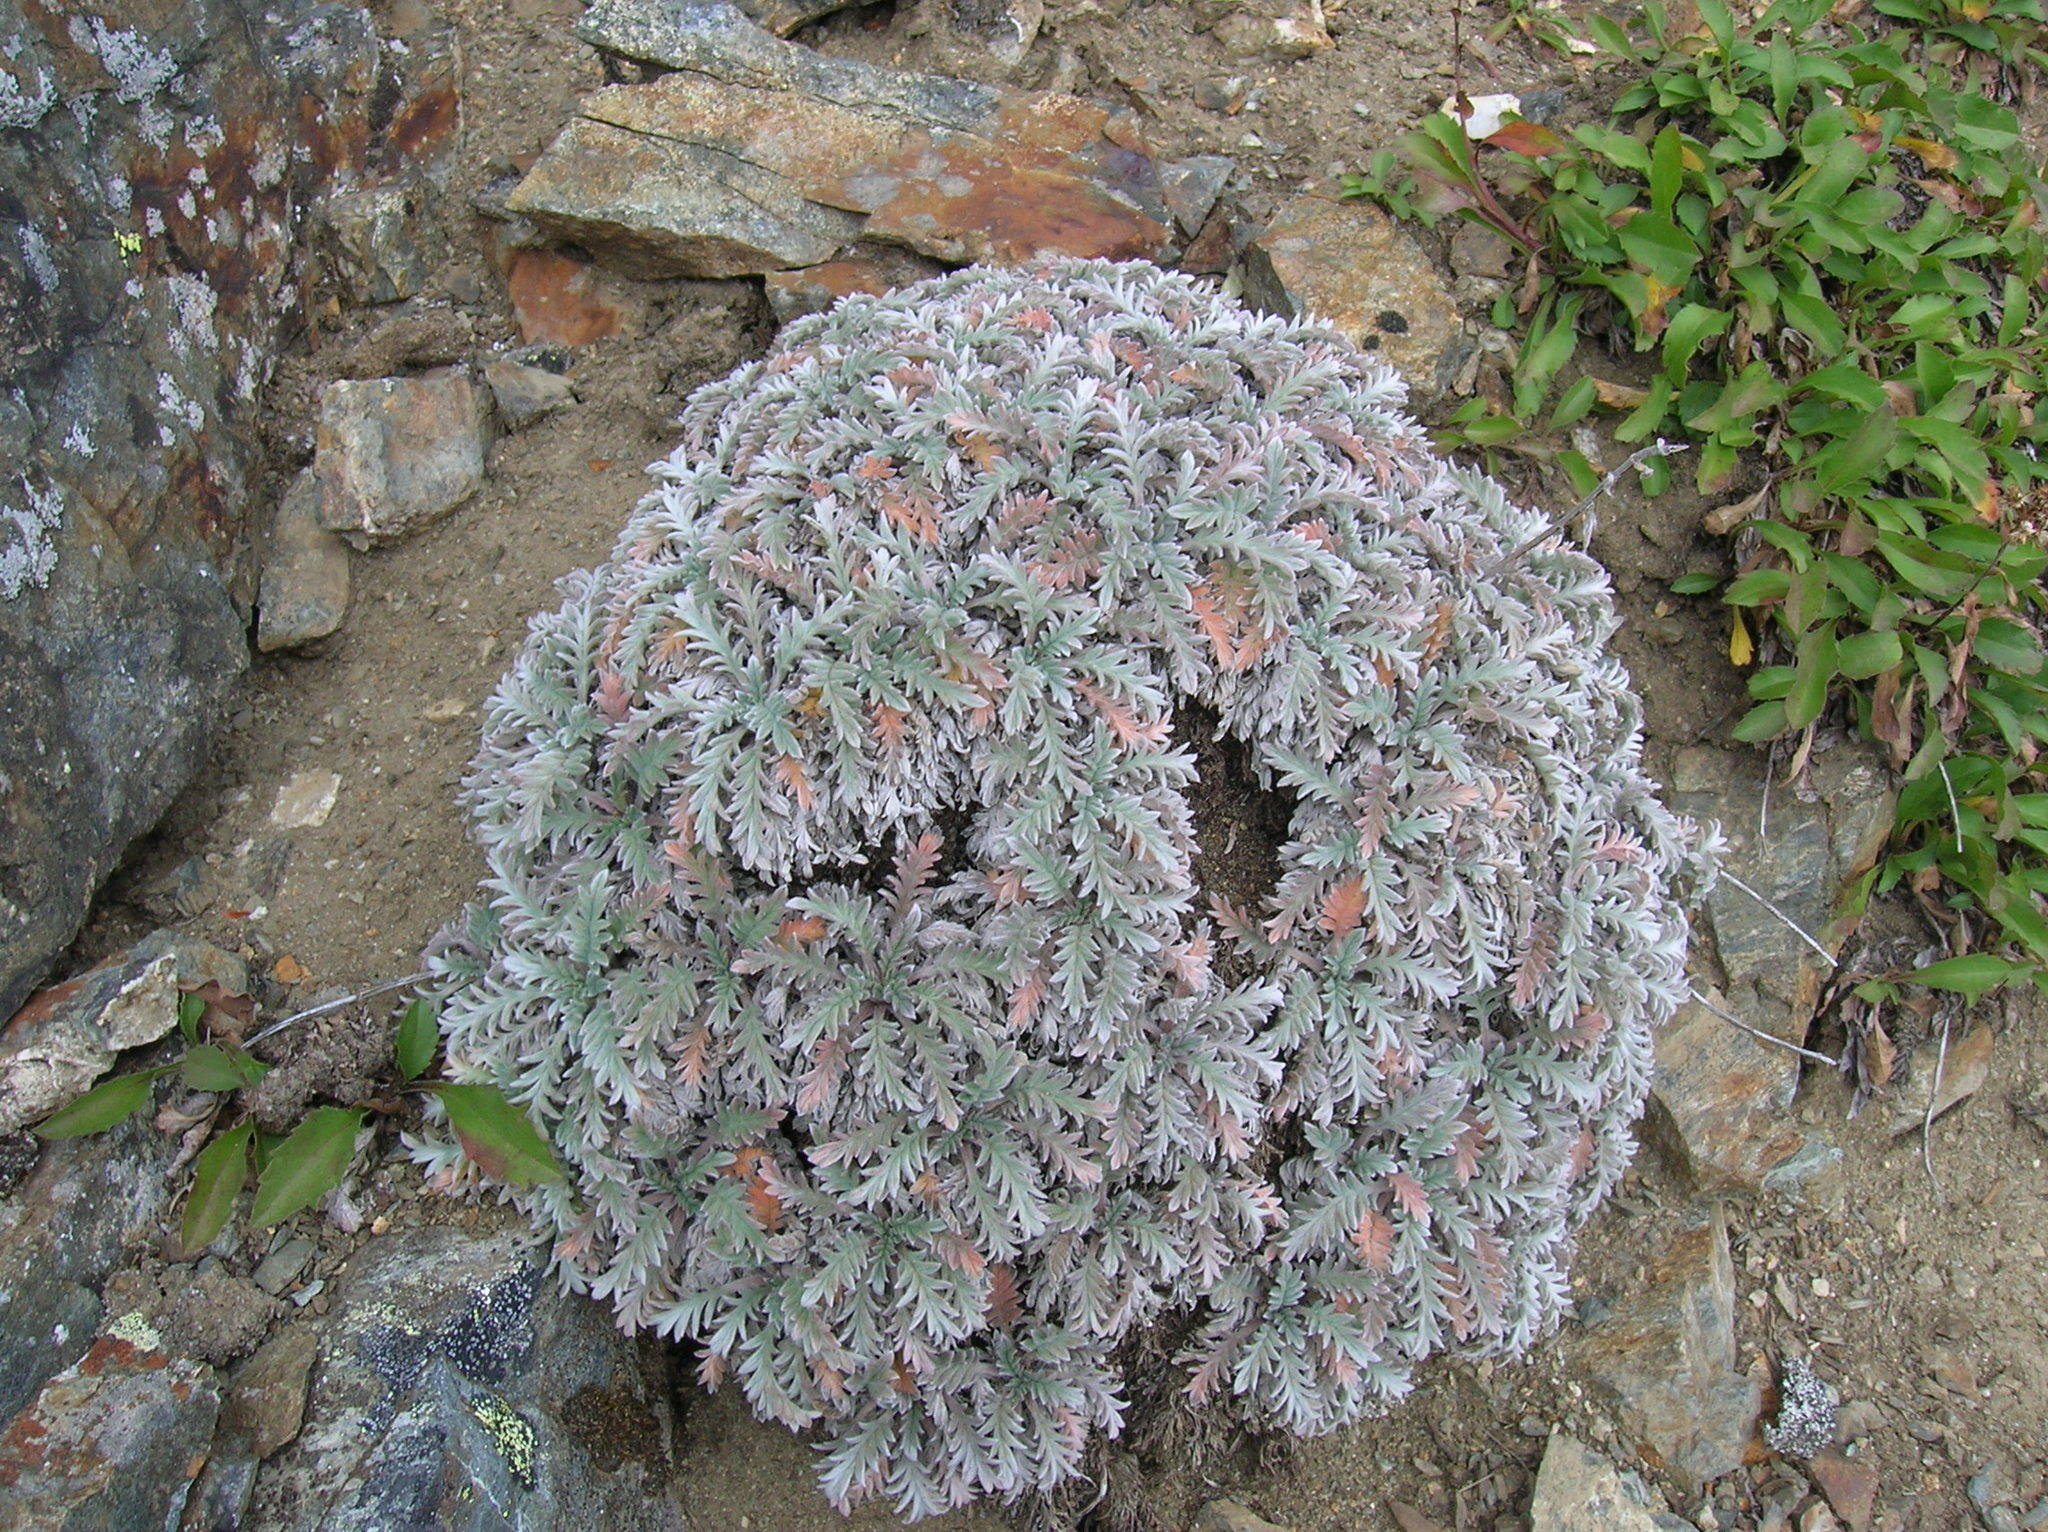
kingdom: Plantae
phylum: Tracheophyta
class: Magnoliopsida
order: Boraginales
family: Hydrophyllaceae
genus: Phacelia
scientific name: Phacelia sericea
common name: Silky phacelia
